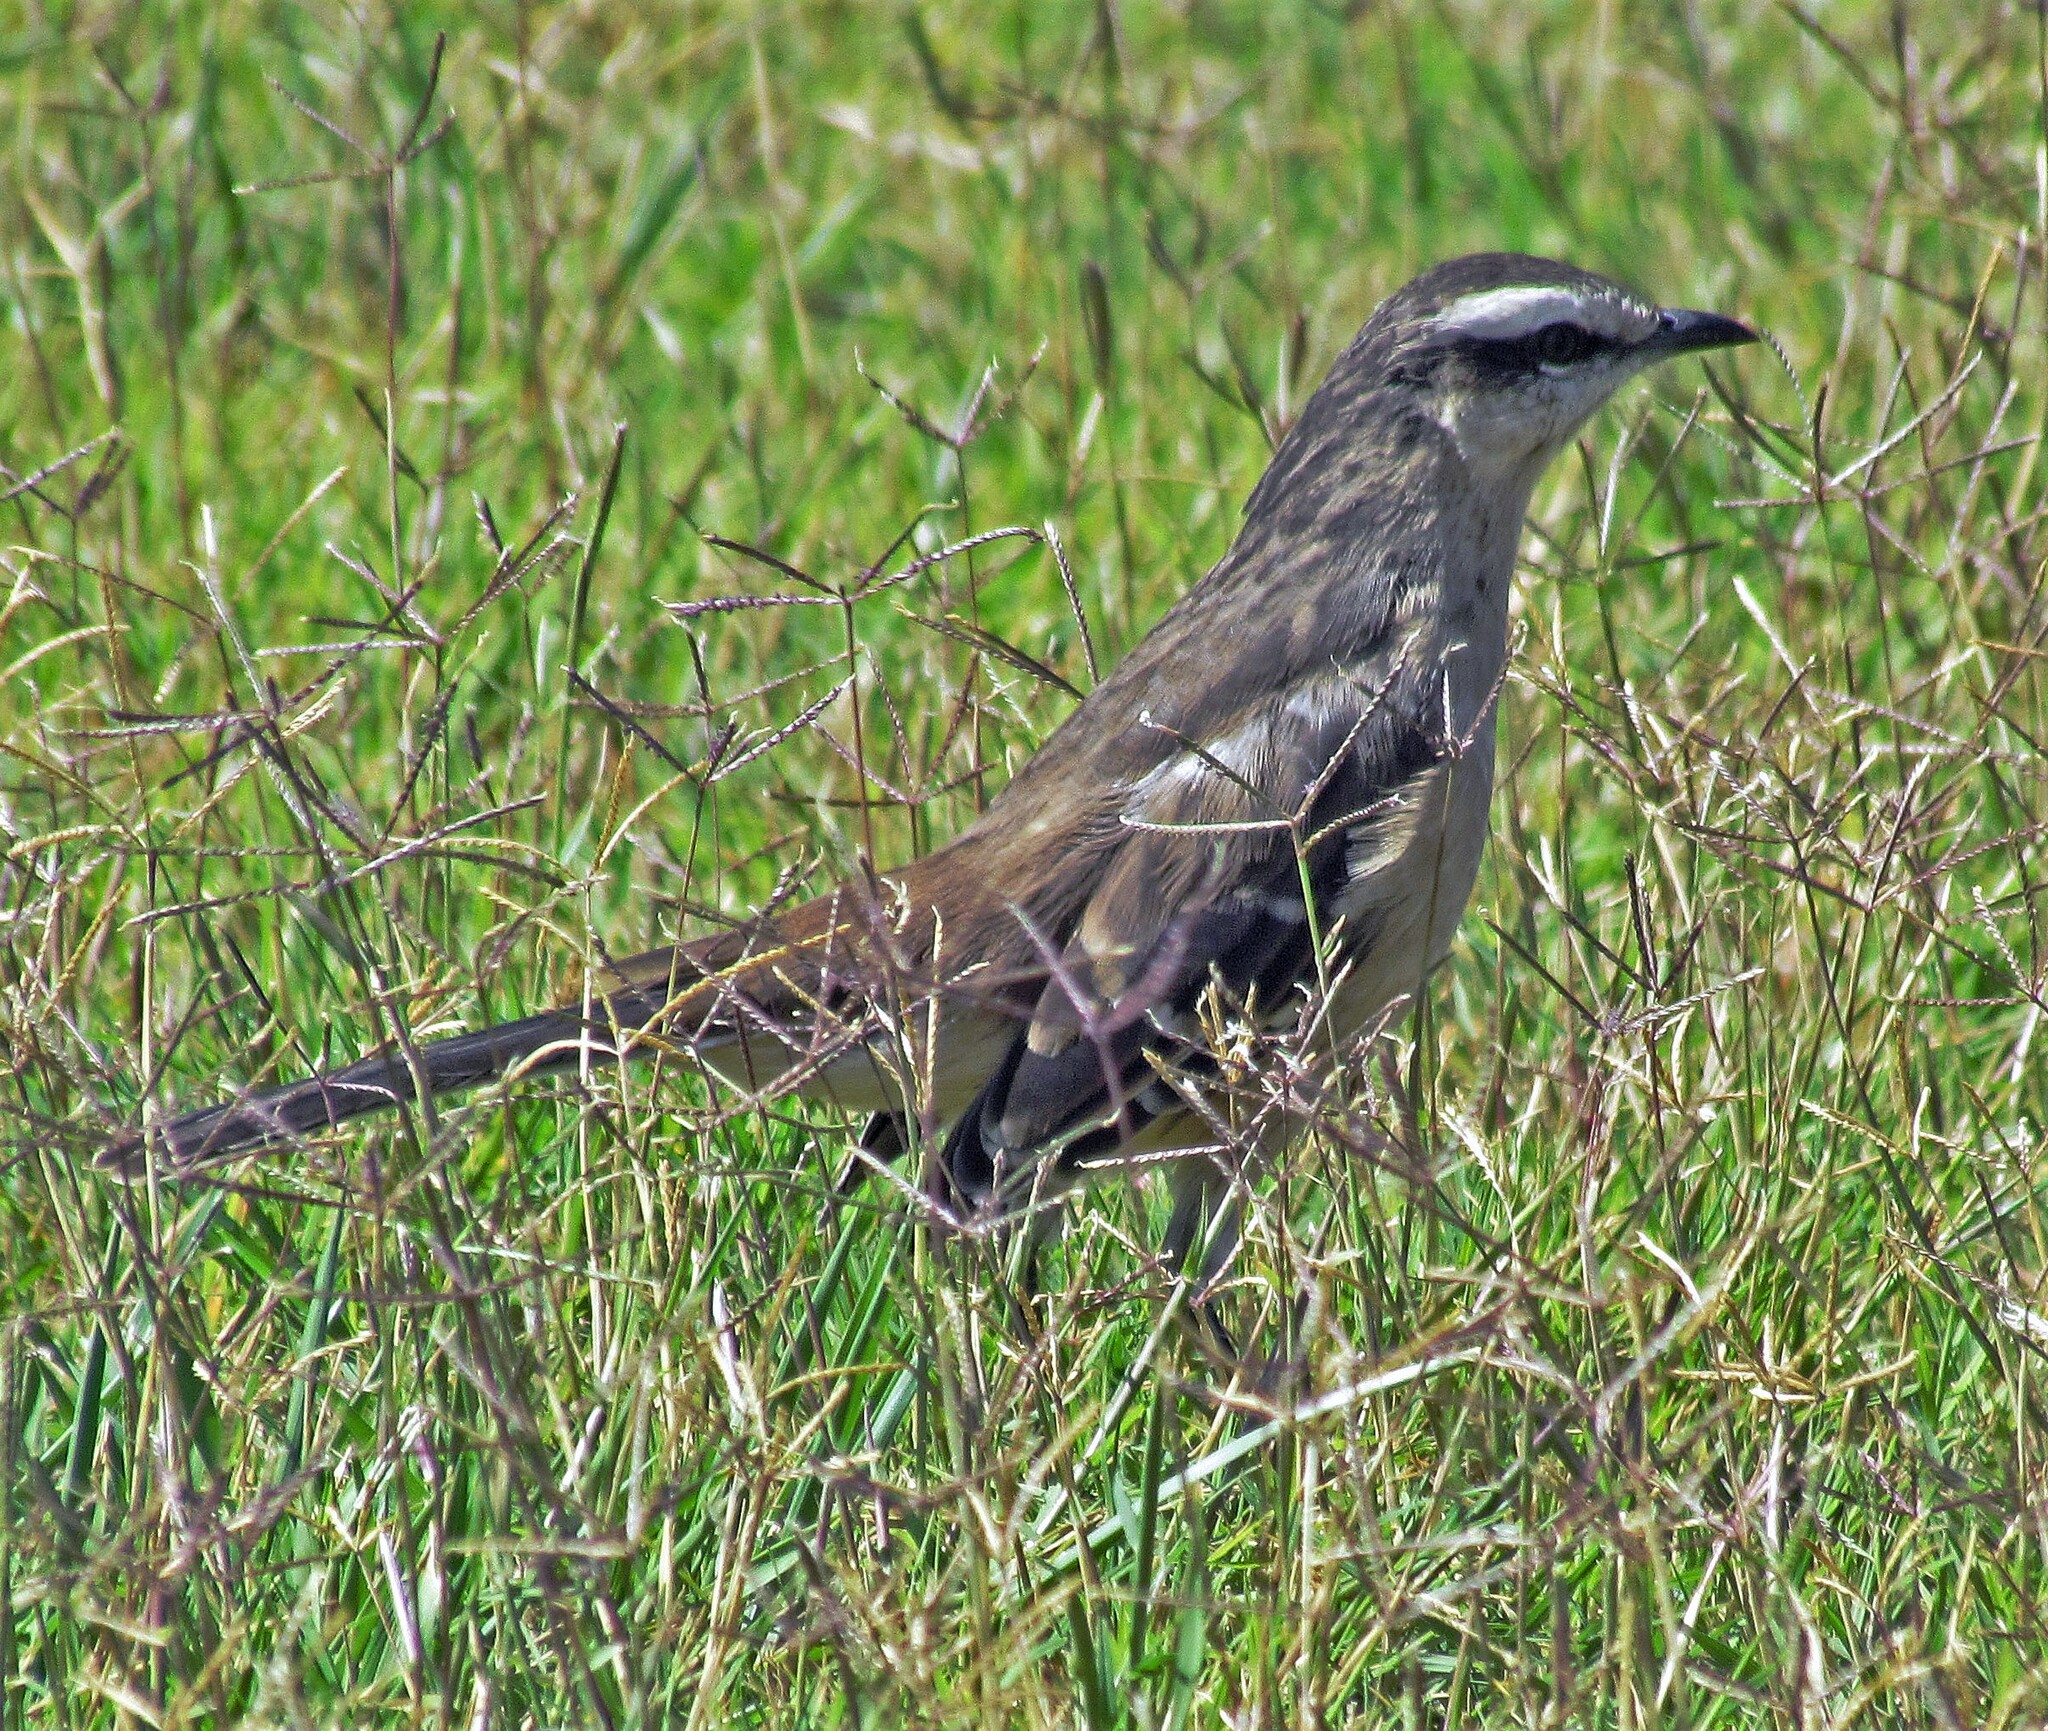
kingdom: Animalia
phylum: Chordata
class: Aves
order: Passeriformes
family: Mimidae
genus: Mimus
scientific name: Mimus saturninus
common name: Chalk-browed mockingbird
